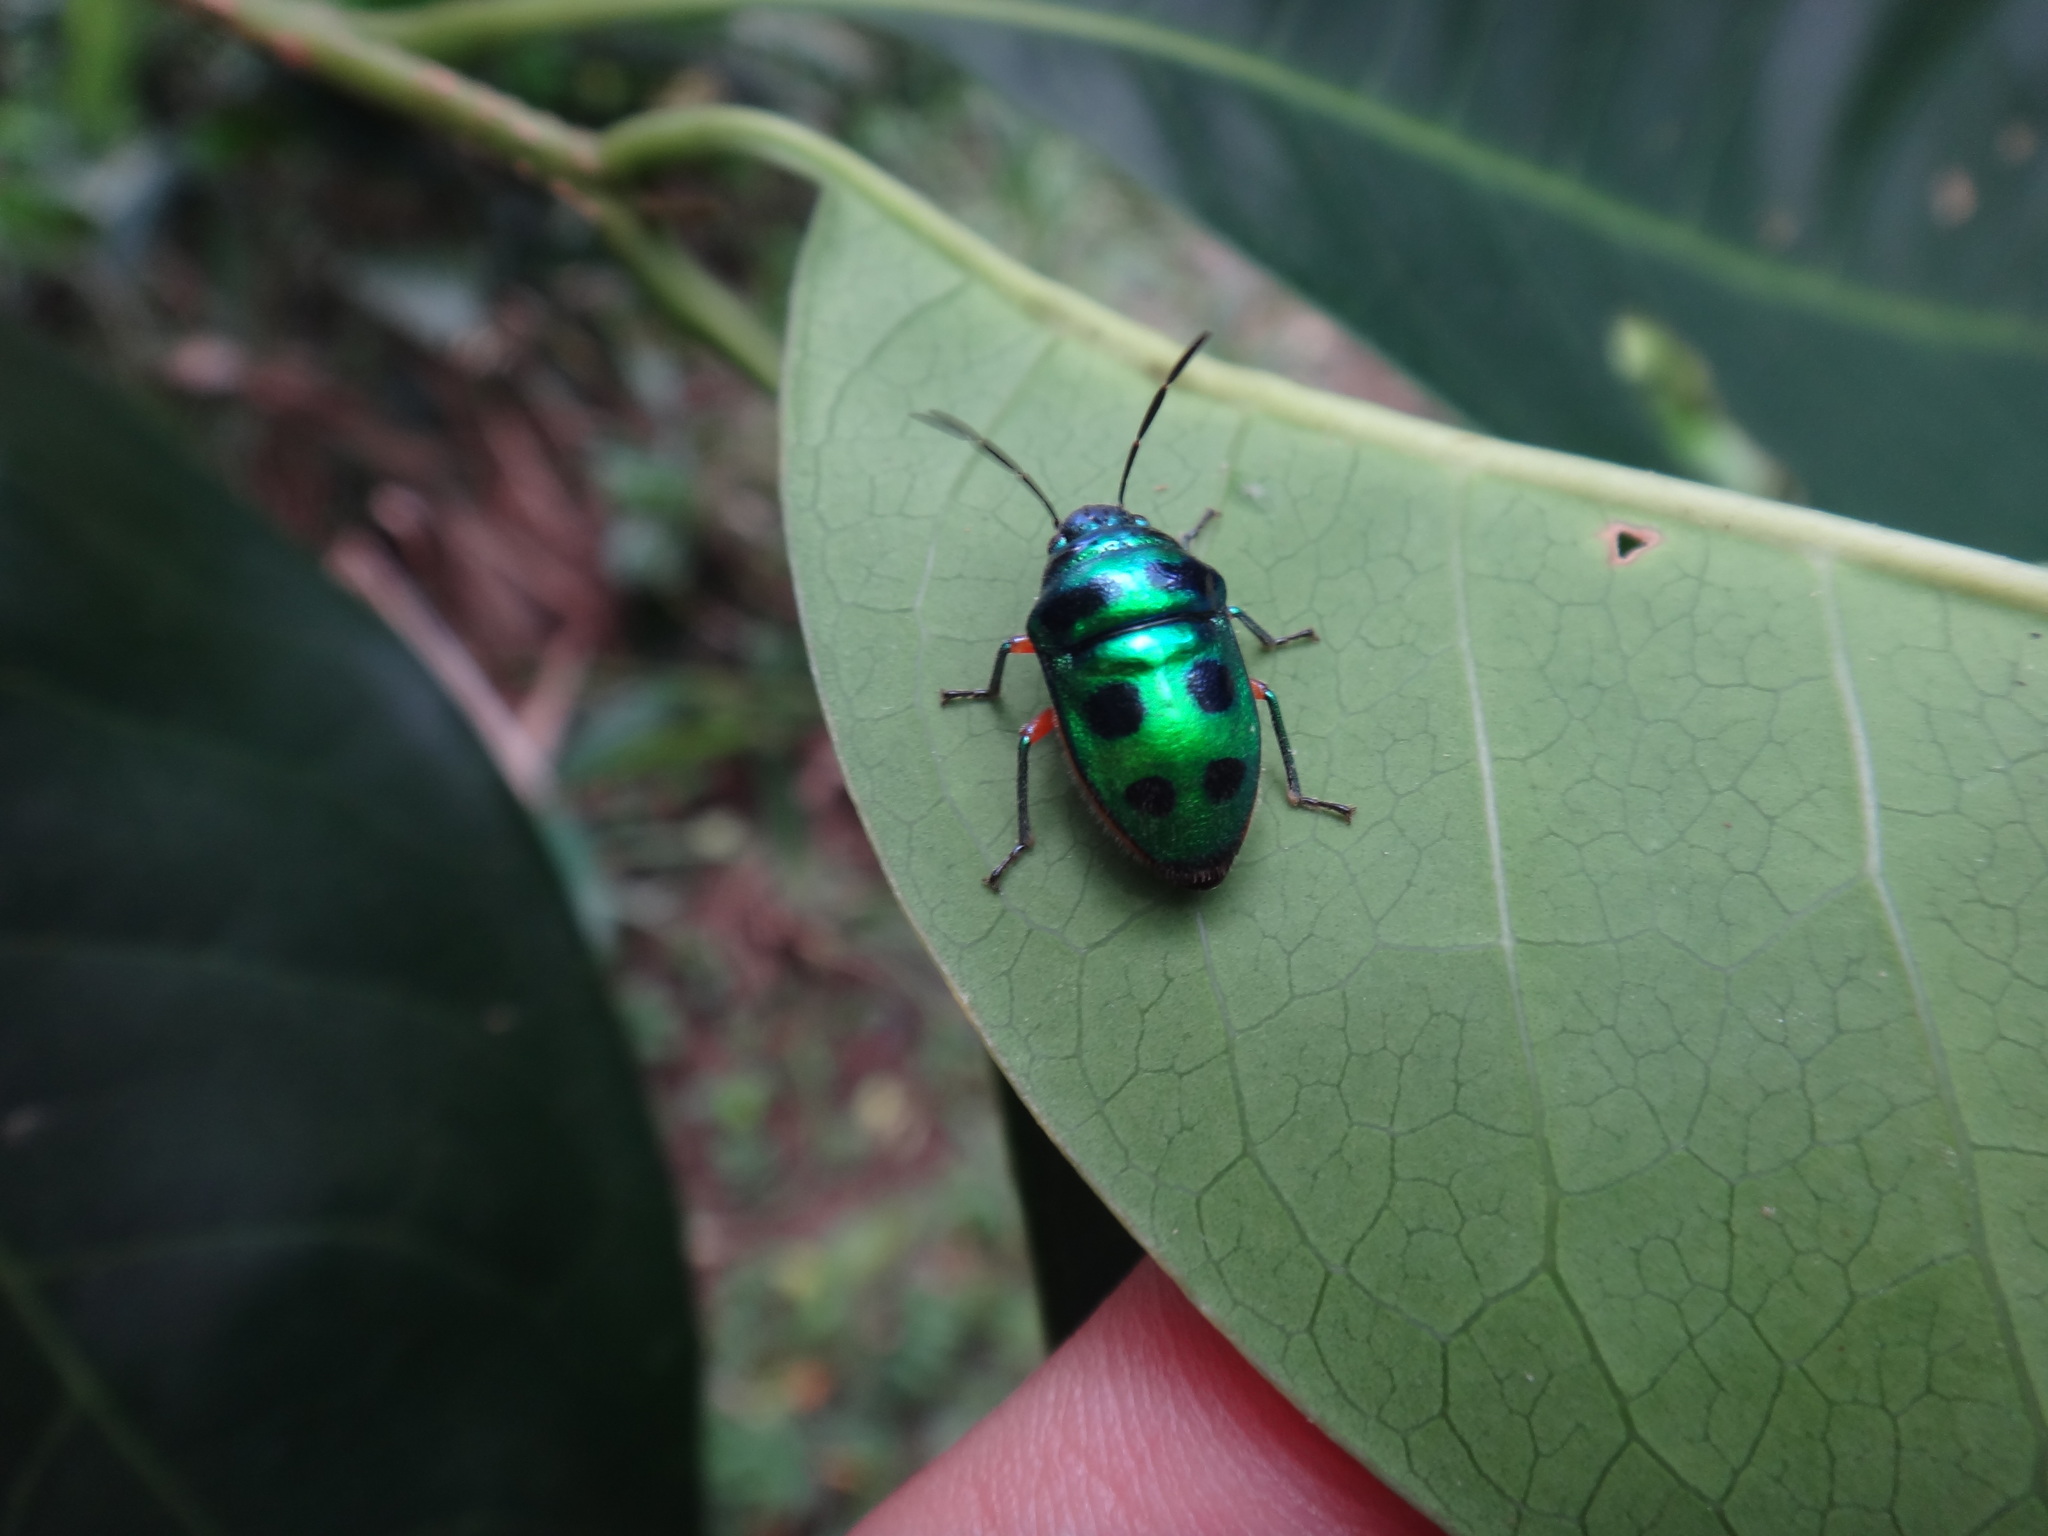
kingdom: Animalia
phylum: Arthropoda
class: Insecta
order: Hemiptera
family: Scutelleridae
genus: Lampromicra
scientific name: Lampromicra miyakona
